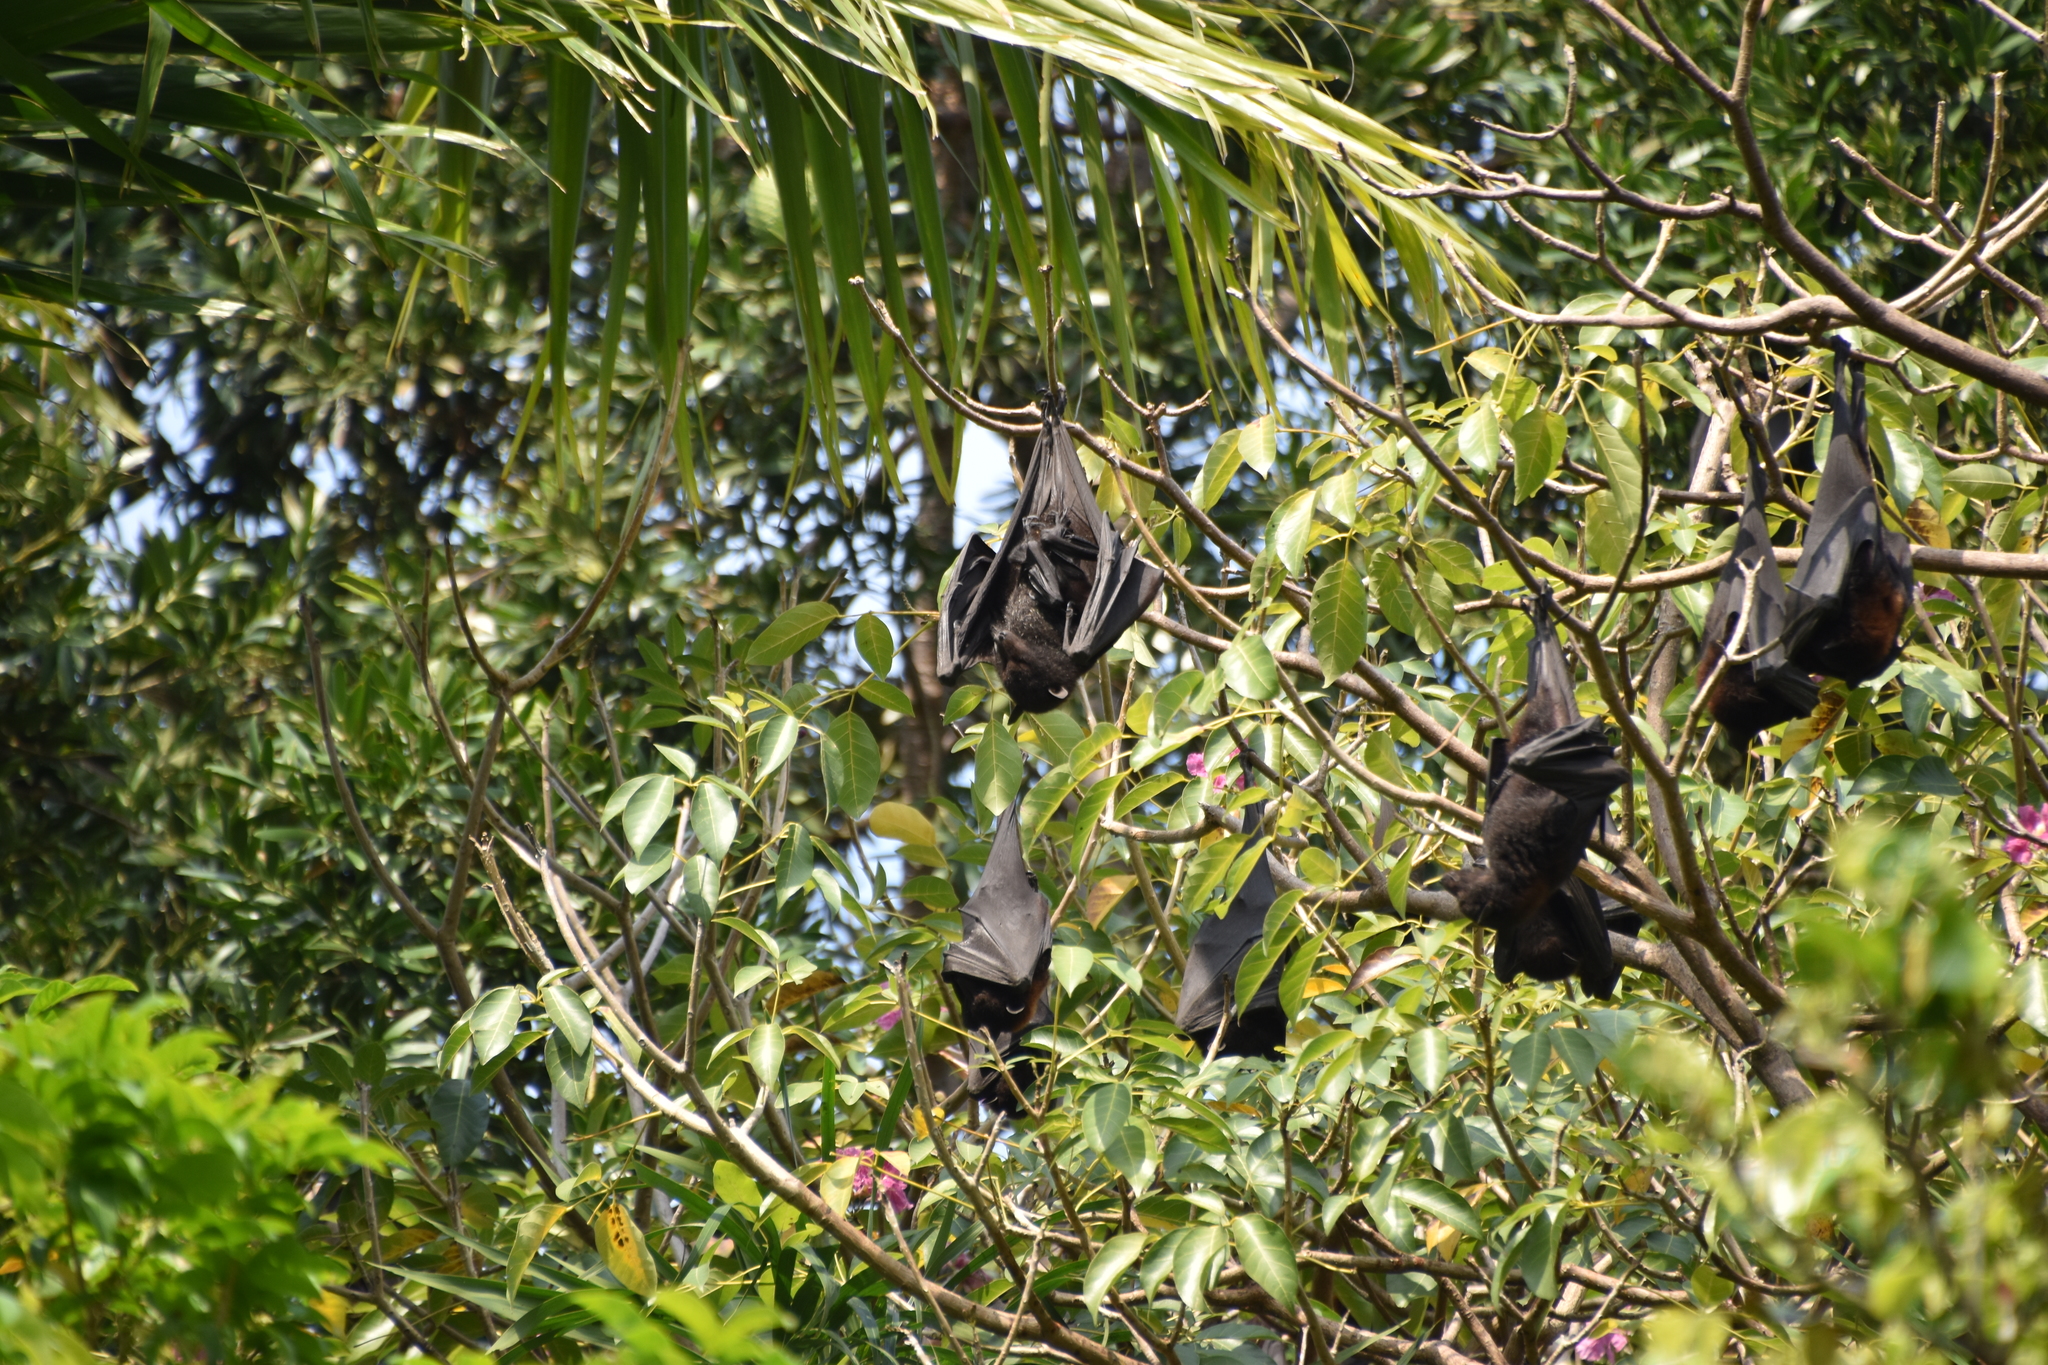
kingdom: Animalia
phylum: Chordata
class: Mammalia
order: Chiroptera
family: Pteropodidae
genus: Pteropus
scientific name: Pteropus alecto
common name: Black flying fox
